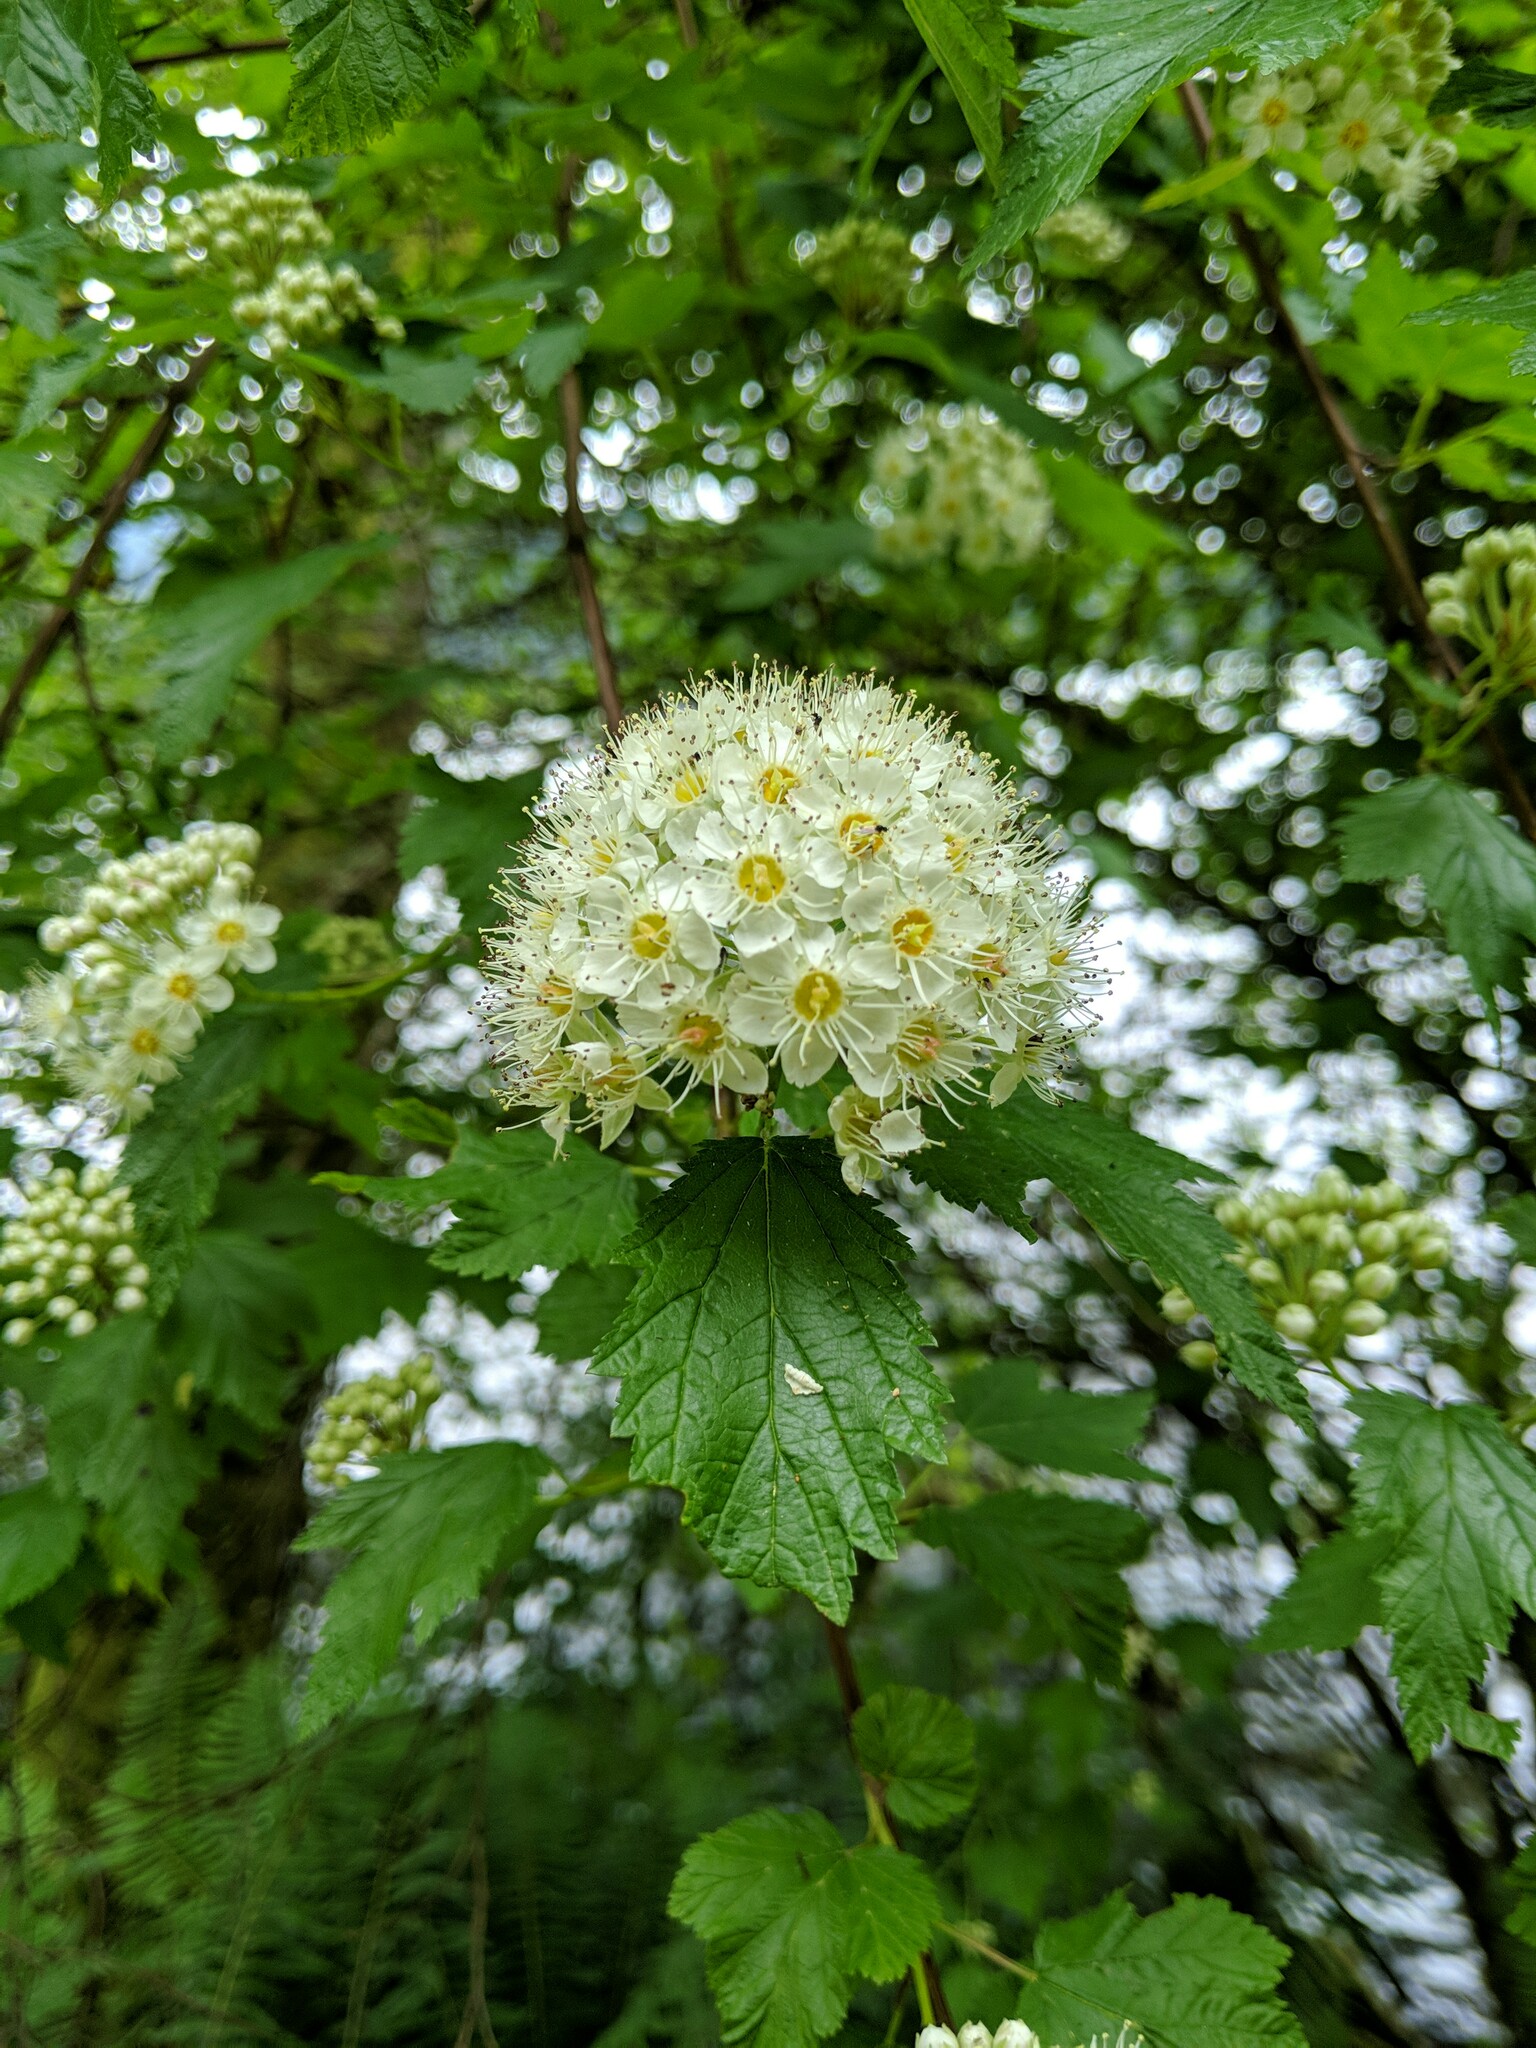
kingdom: Plantae
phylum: Tracheophyta
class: Magnoliopsida
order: Rosales
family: Rosaceae
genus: Physocarpus
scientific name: Physocarpus capitatus
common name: Pacific ninebark
